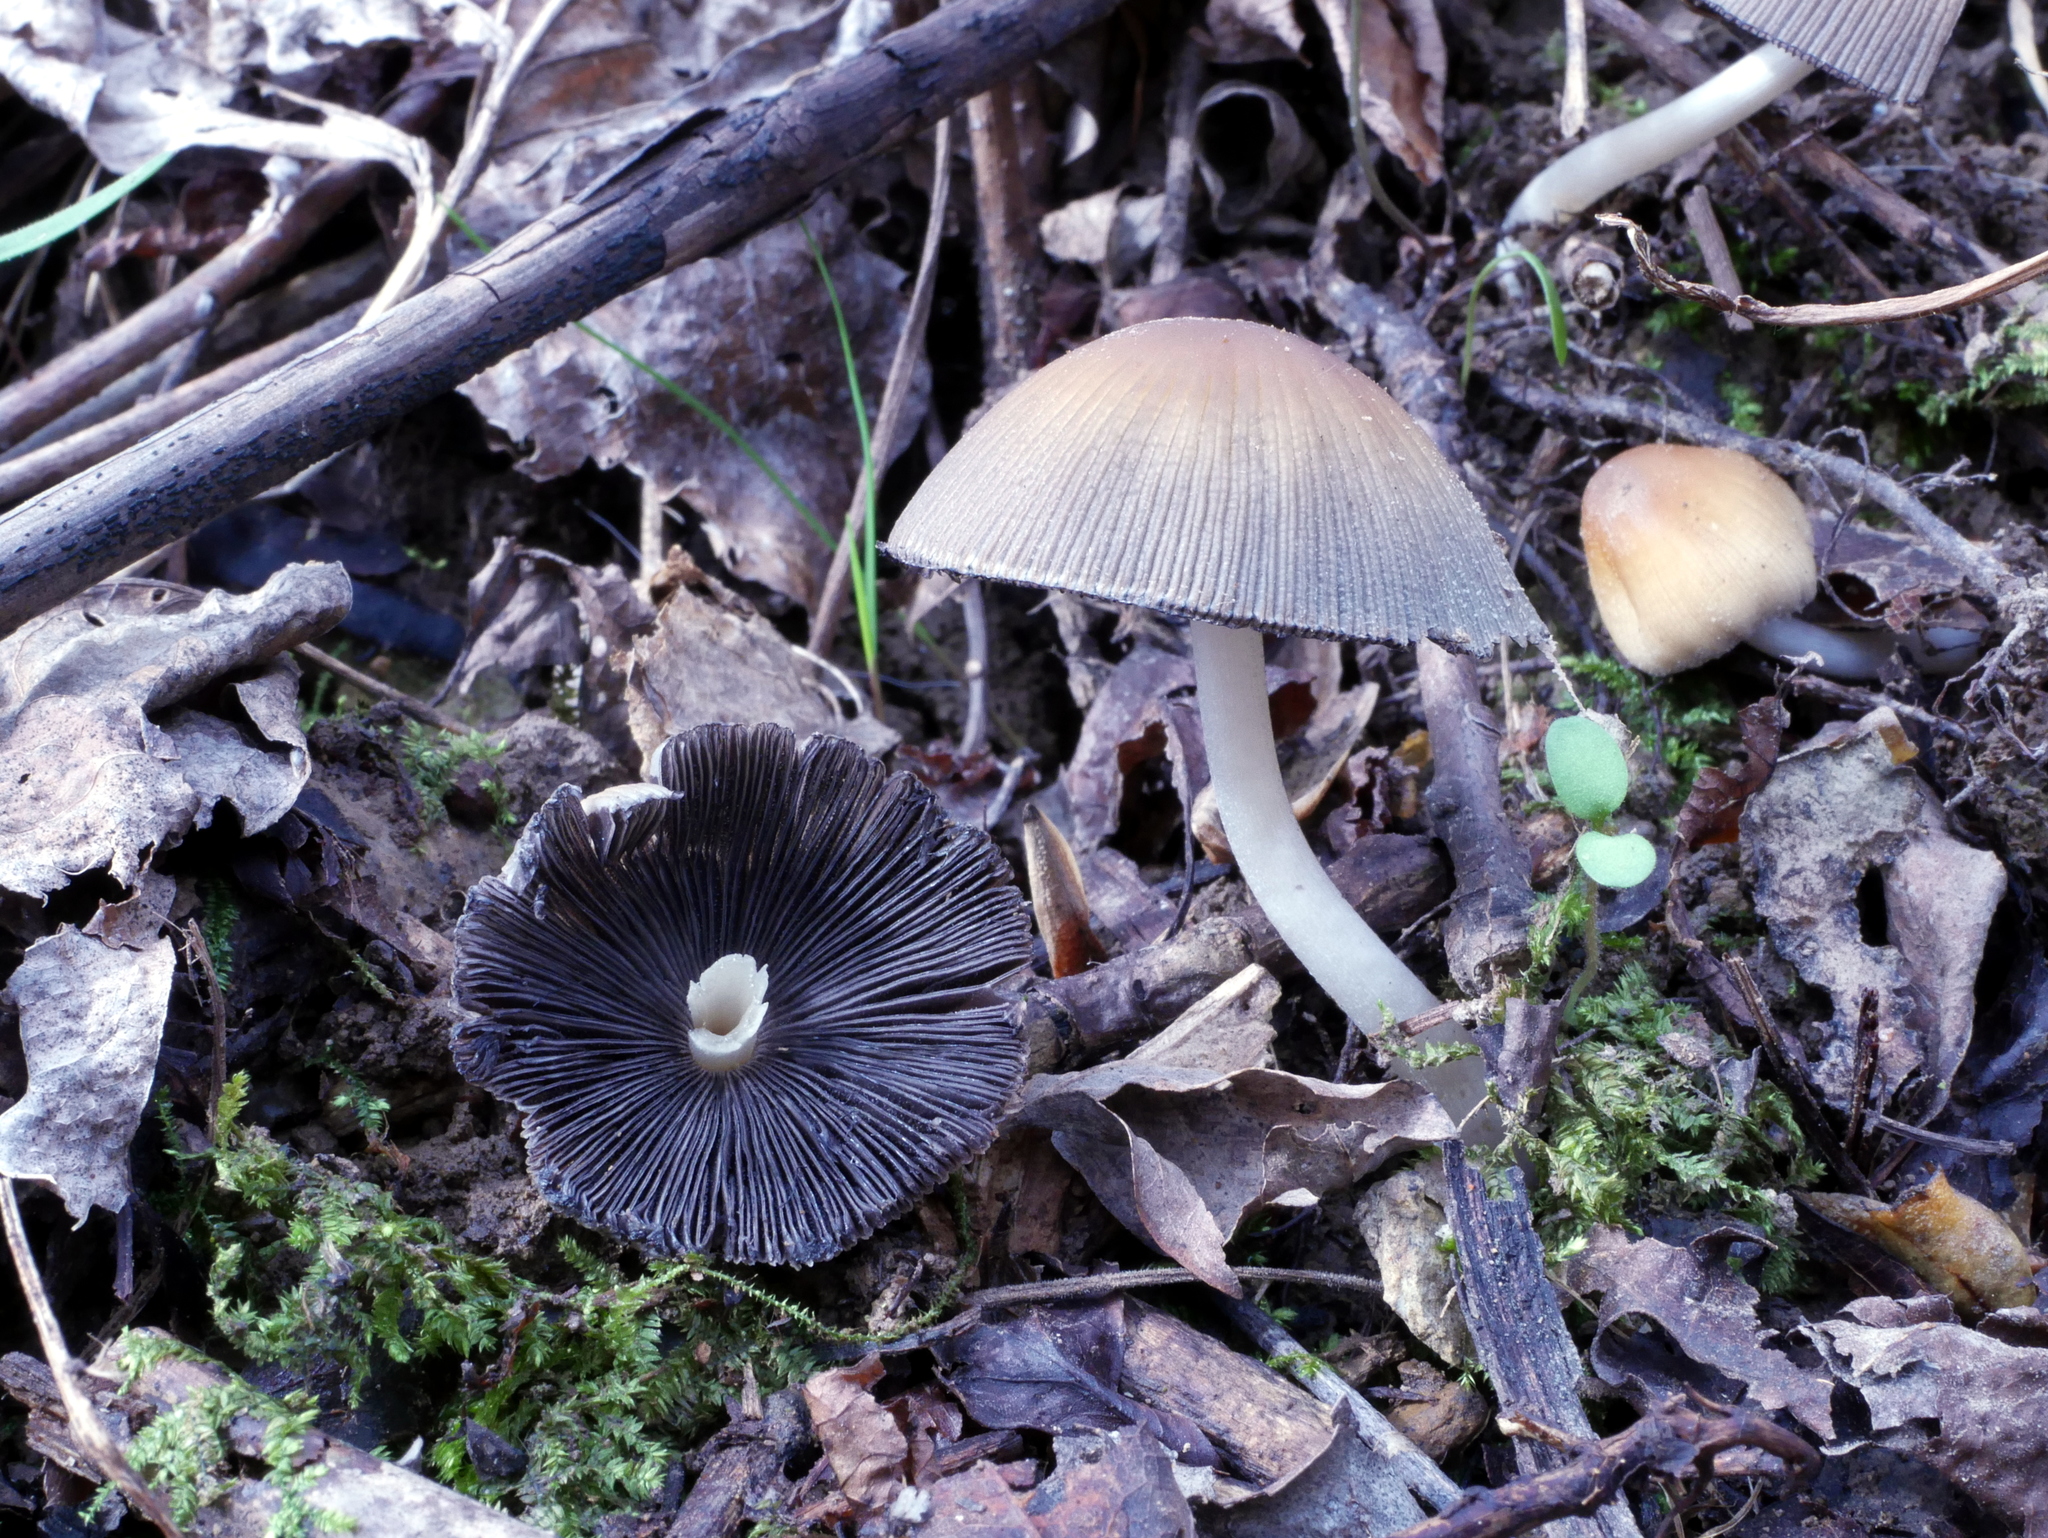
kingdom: Fungi
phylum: Basidiomycota
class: Agaricomycetes
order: Agaricales
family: Psathyrellaceae
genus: Coprinellus
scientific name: Coprinellus micaceus
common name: Glistening ink-cap
